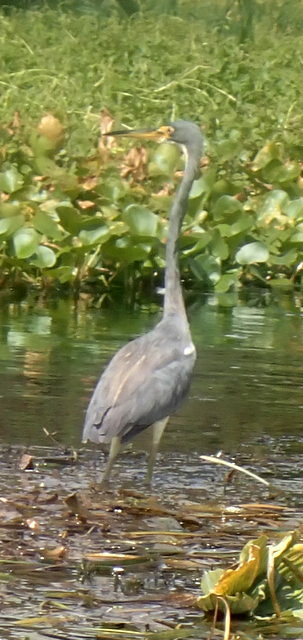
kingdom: Animalia
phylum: Chordata
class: Aves
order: Pelecaniformes
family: Ardeidae
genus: Egretta
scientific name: Egretta tricolor
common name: Tricolored heron
